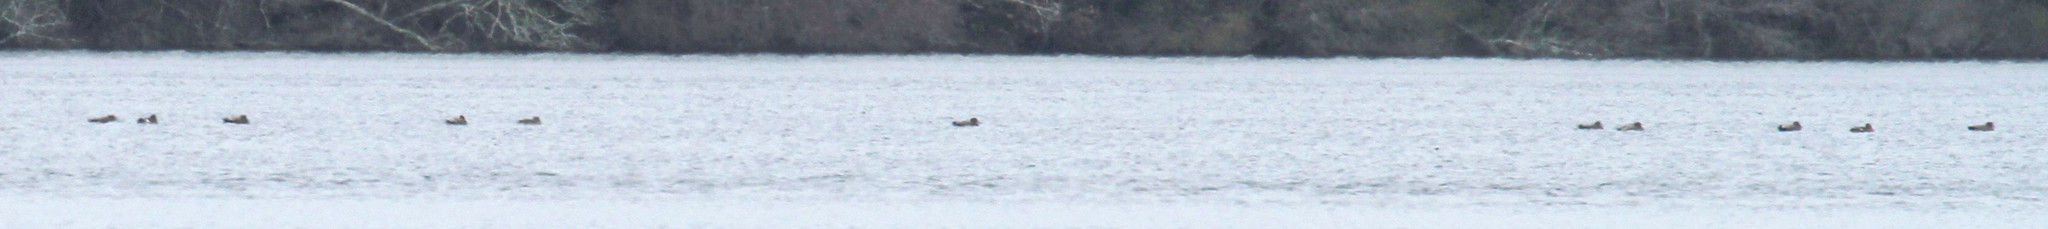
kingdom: Animalia
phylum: Chordata
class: Aves
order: Anseriformes
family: Anatidae
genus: Mareca
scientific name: Mareca strepera
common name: Gadwall
